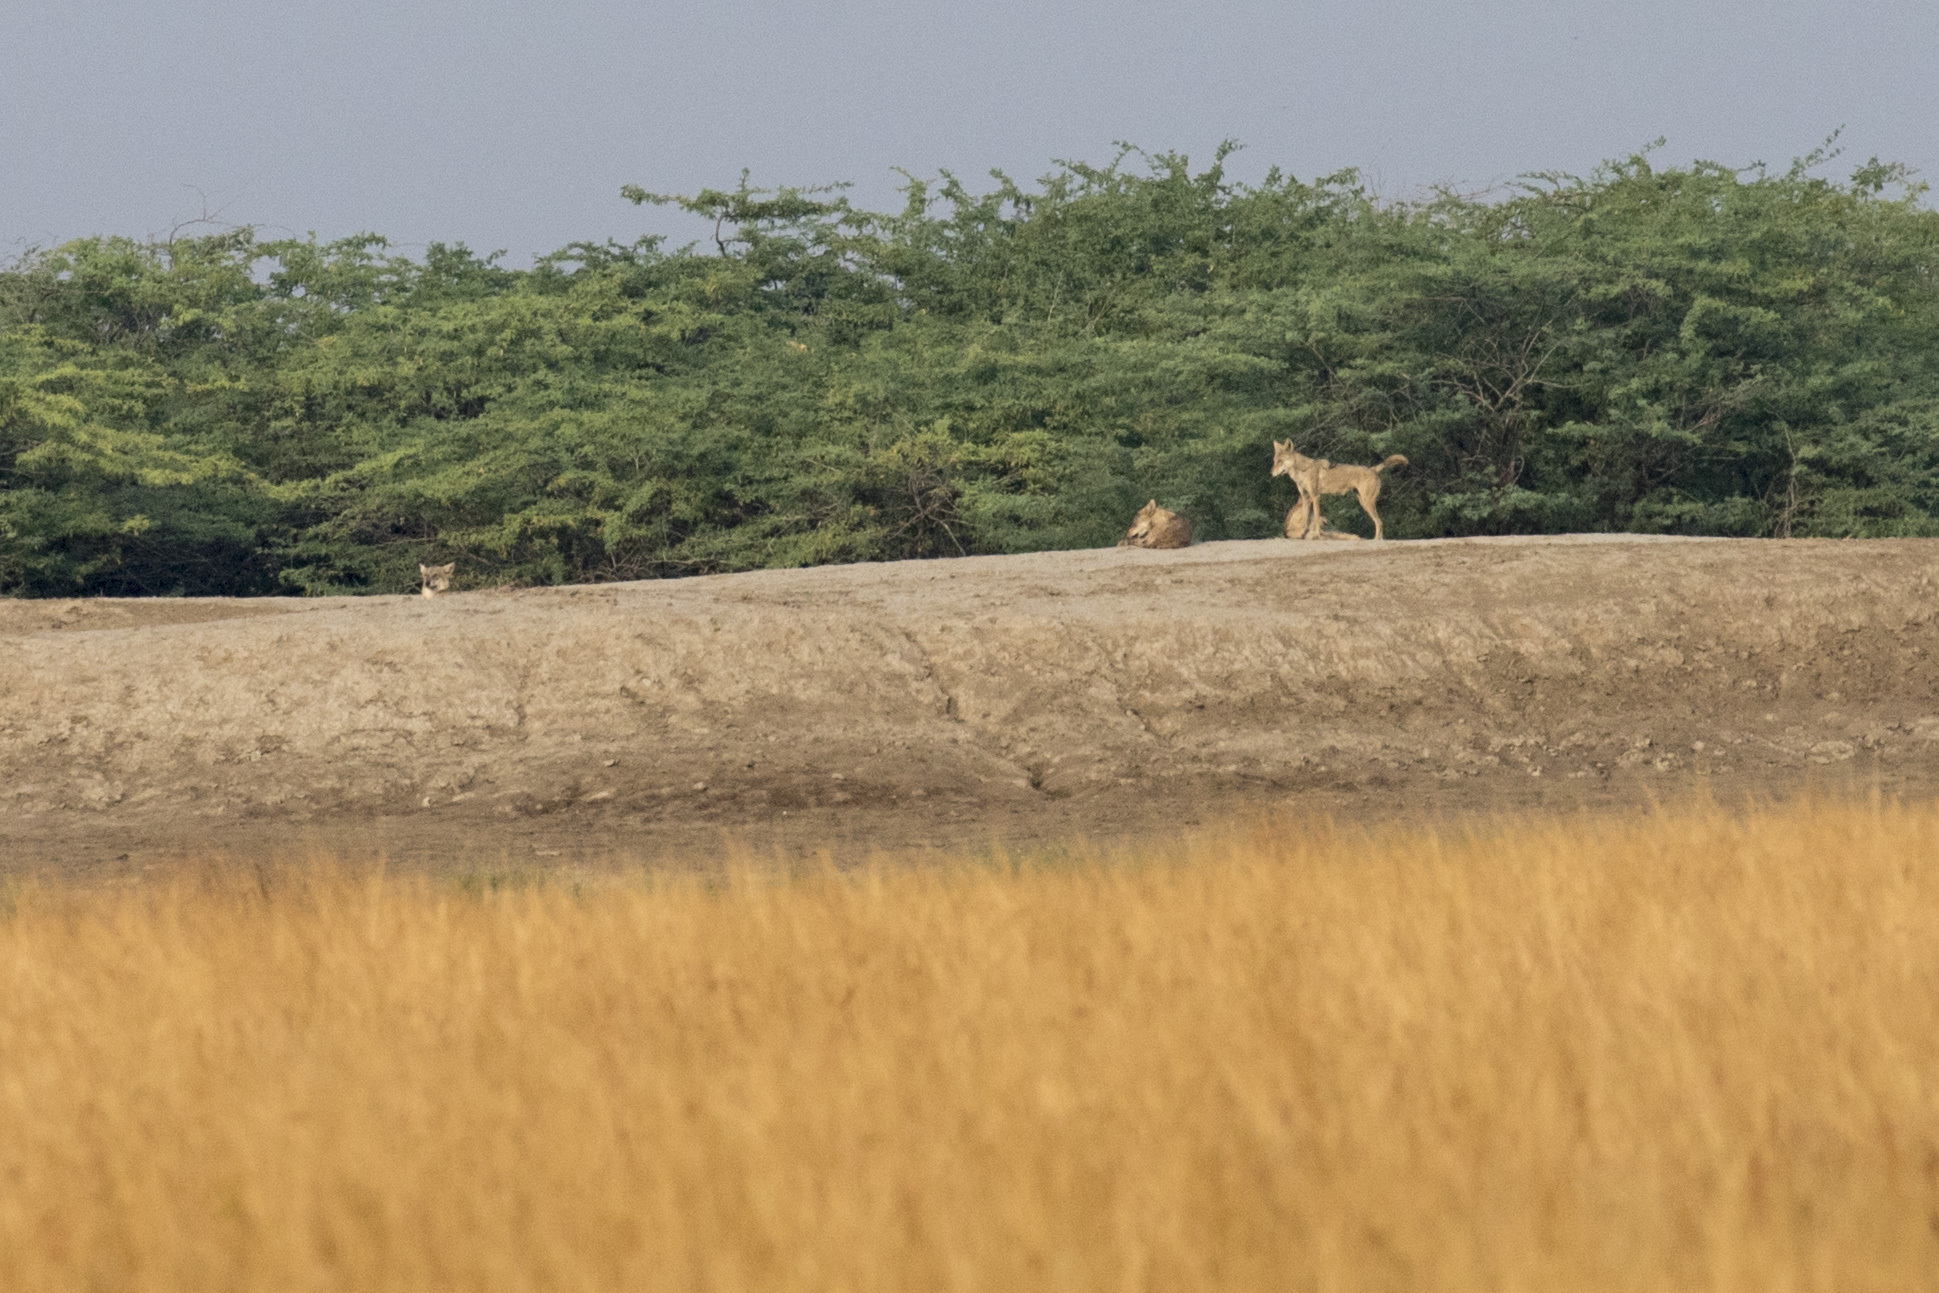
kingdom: Animalia
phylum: Chordata
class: Mammalia
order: Carnivora
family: Canidae
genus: Canis
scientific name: Canis lupus
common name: Gray wolf
